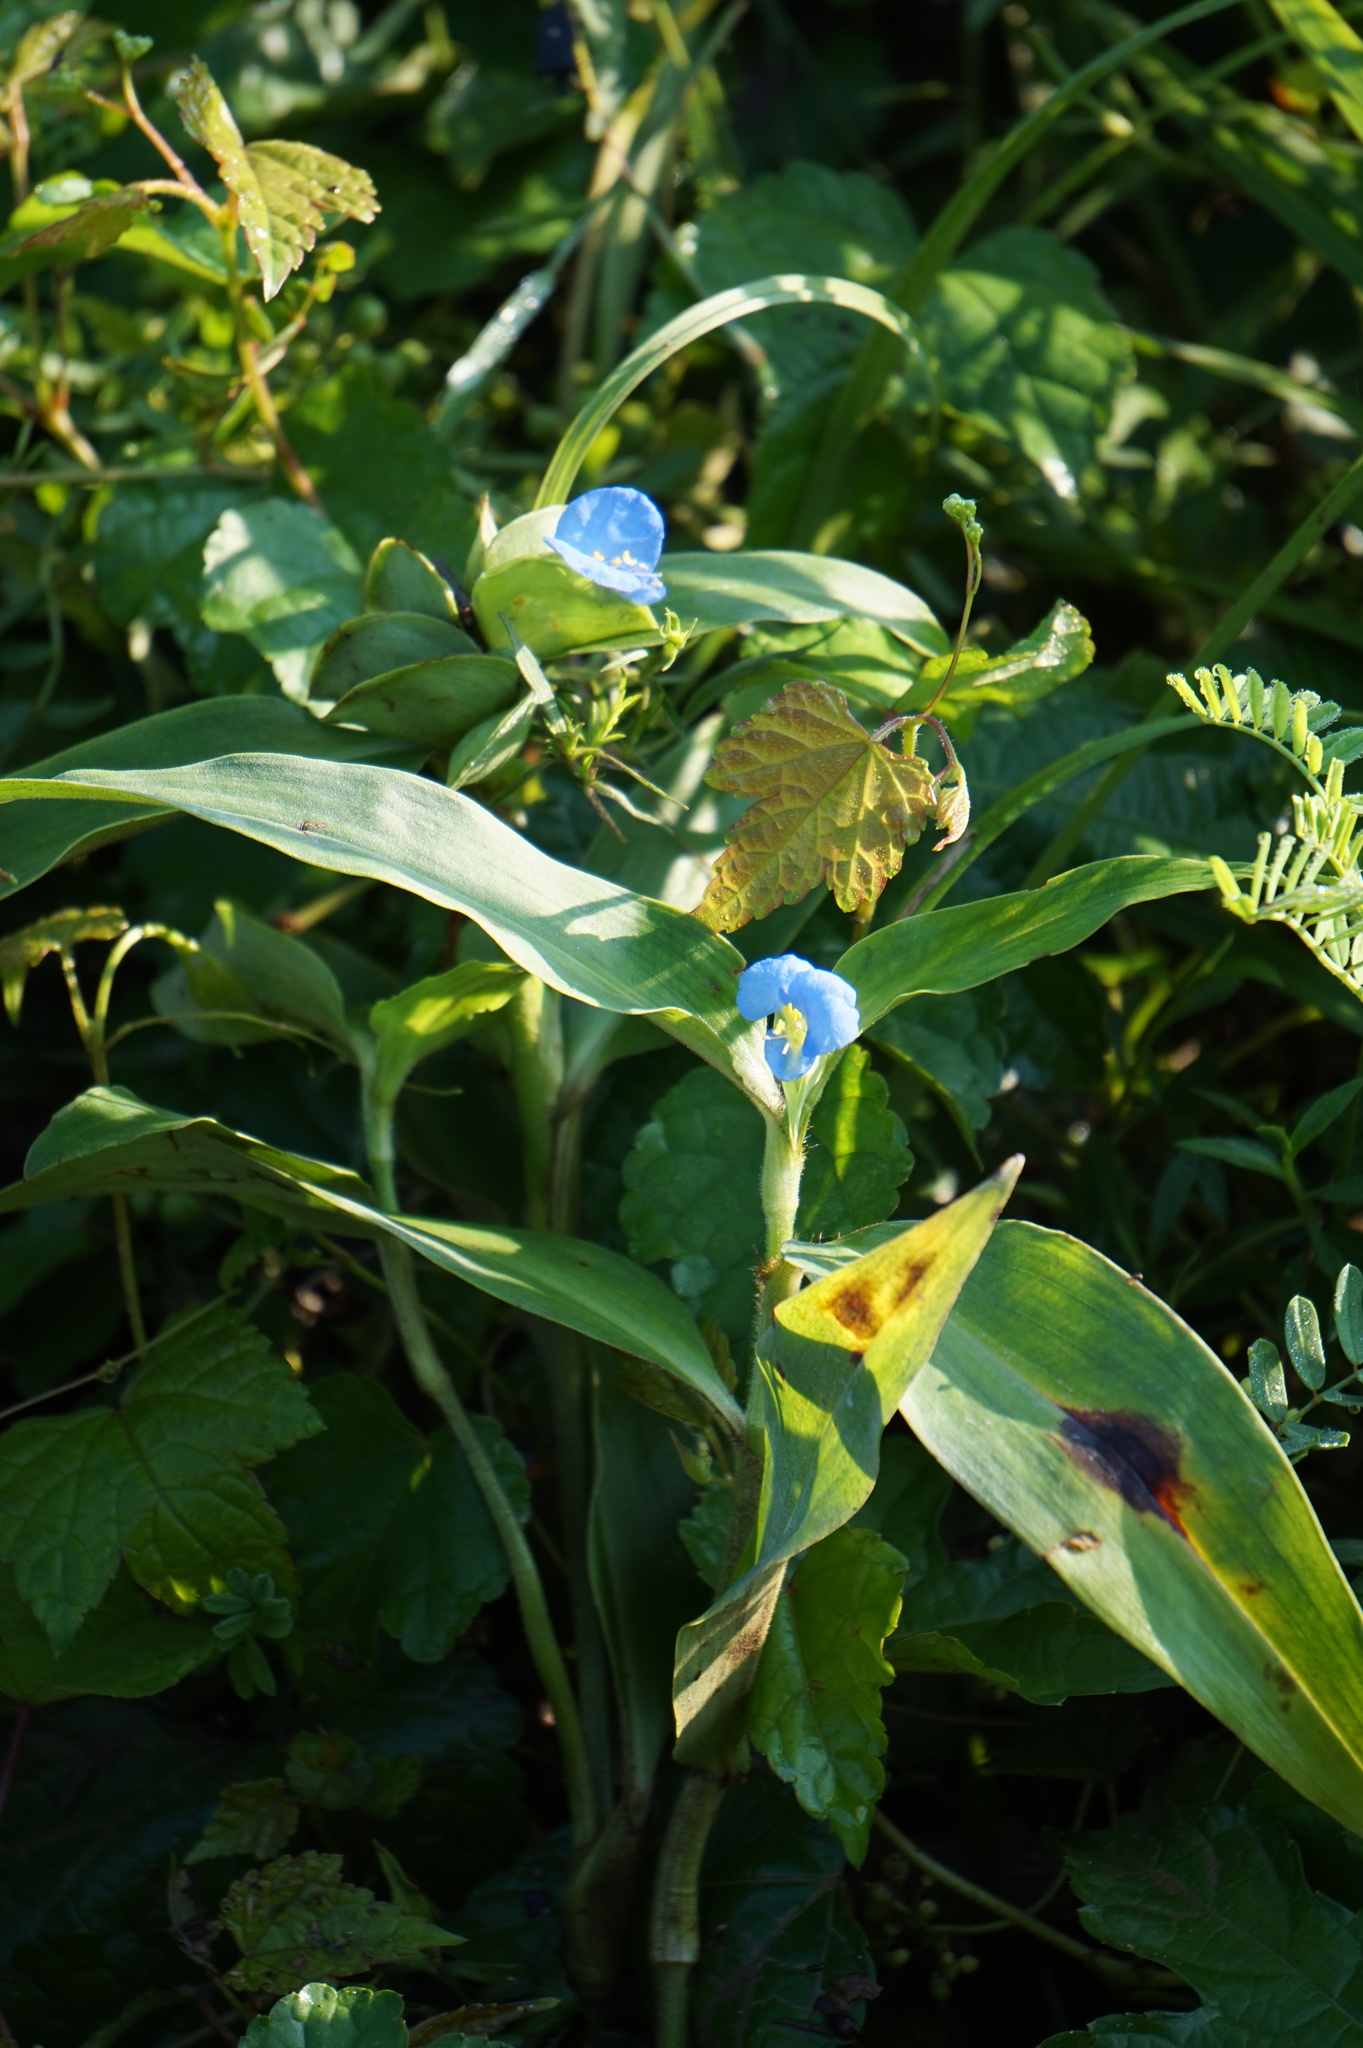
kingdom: Plantae
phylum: Tracheophyta
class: Liliopsida
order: Commelinales
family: Commelinaceae
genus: Commelina
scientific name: Commelina virginica
